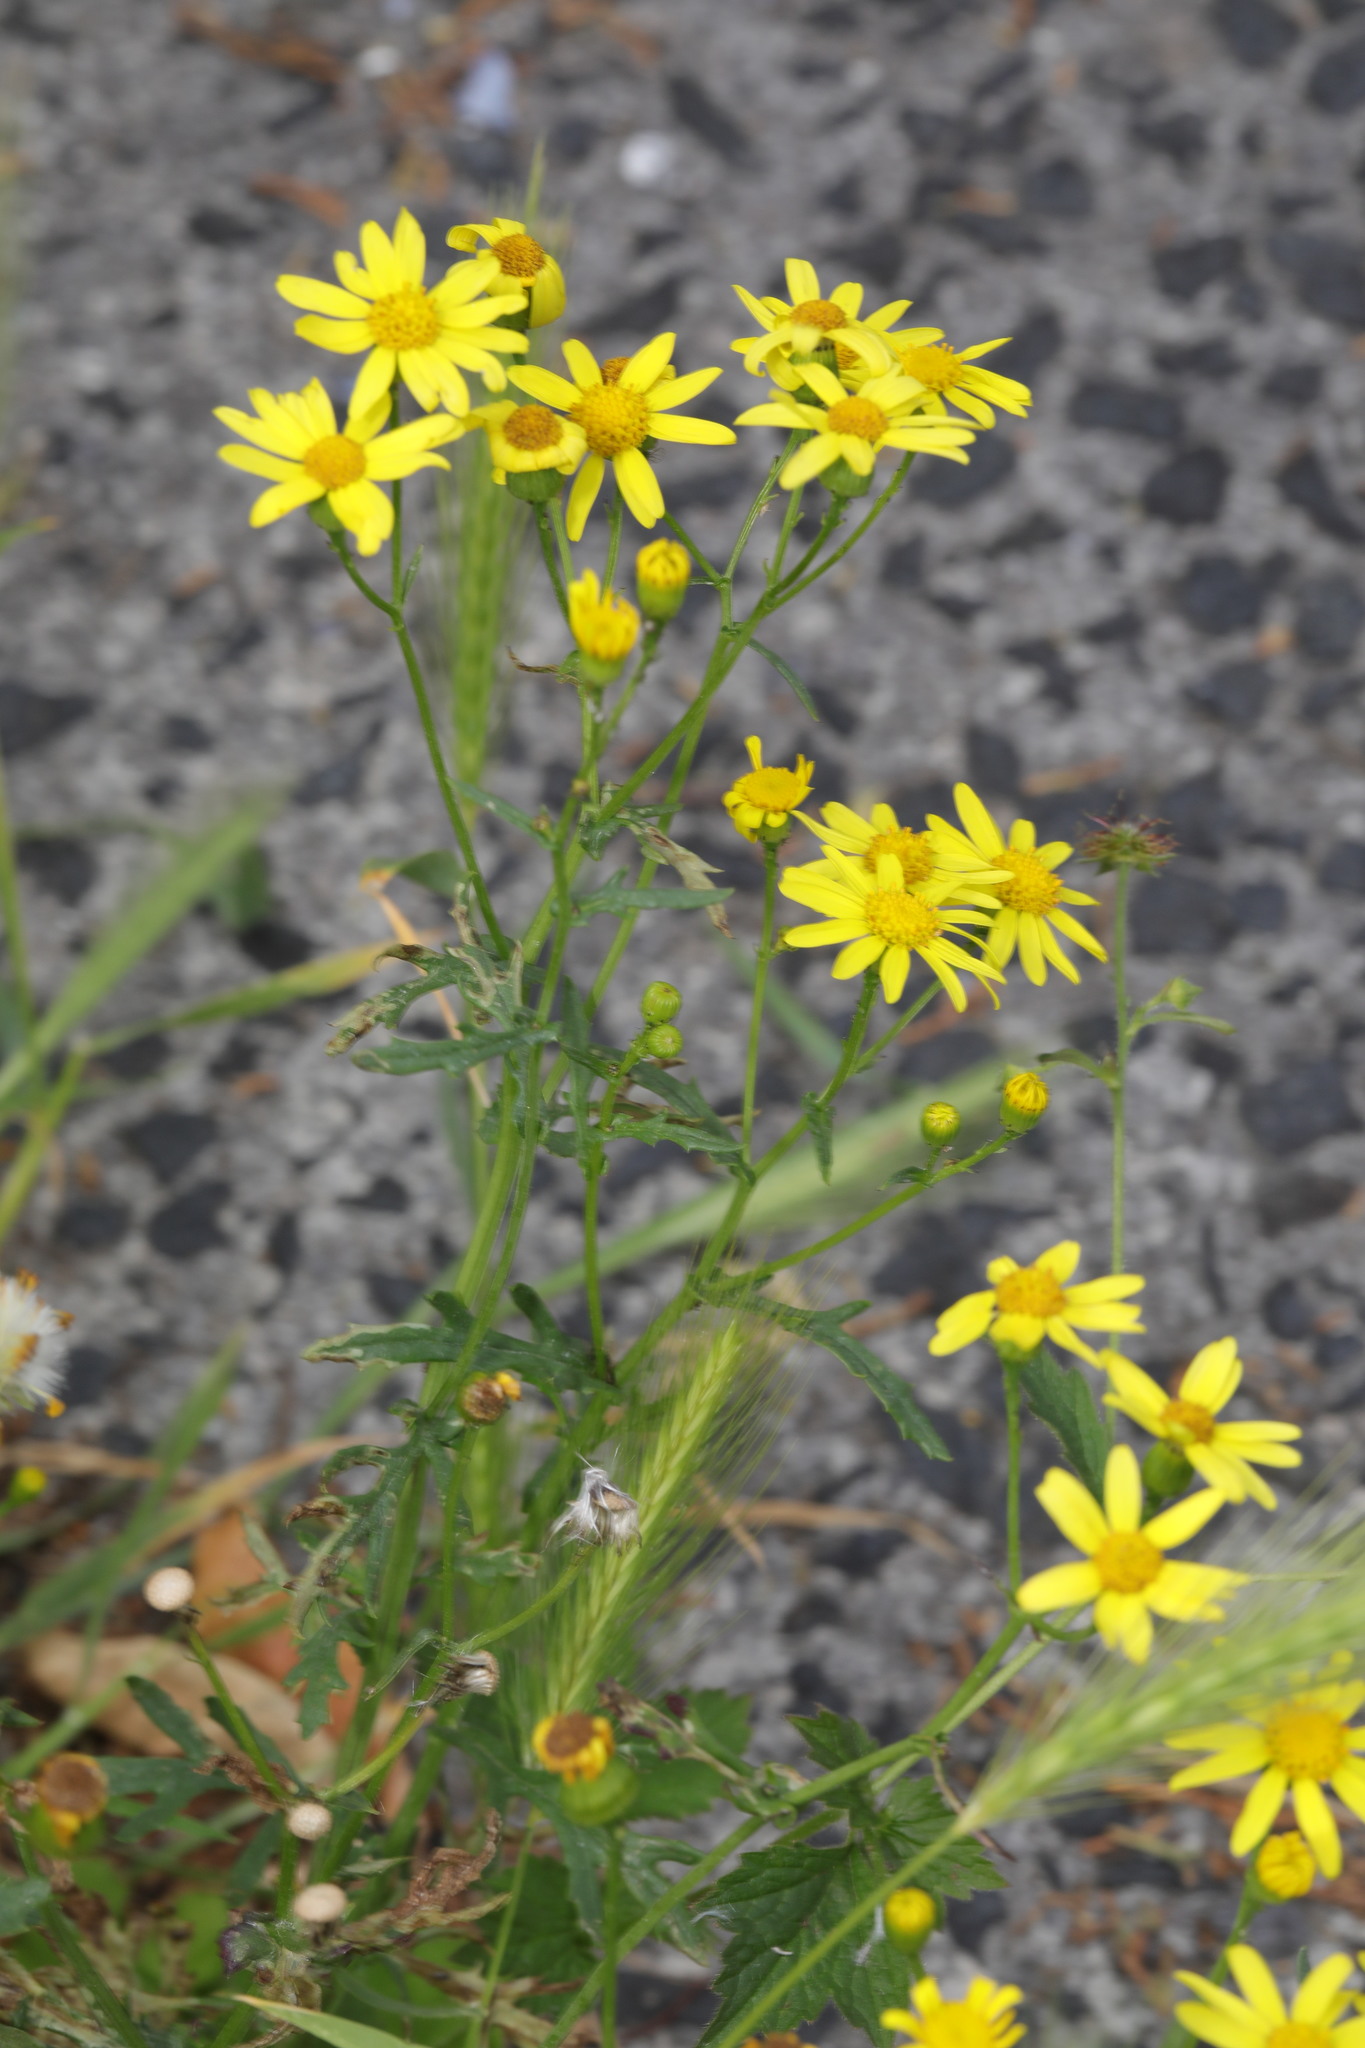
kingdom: Plantae
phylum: Tracheophyta
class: Magnoliopsida
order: Asterales
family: Asteraceae
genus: Senecio
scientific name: Senecio squalidus
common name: Oxford ragwort
